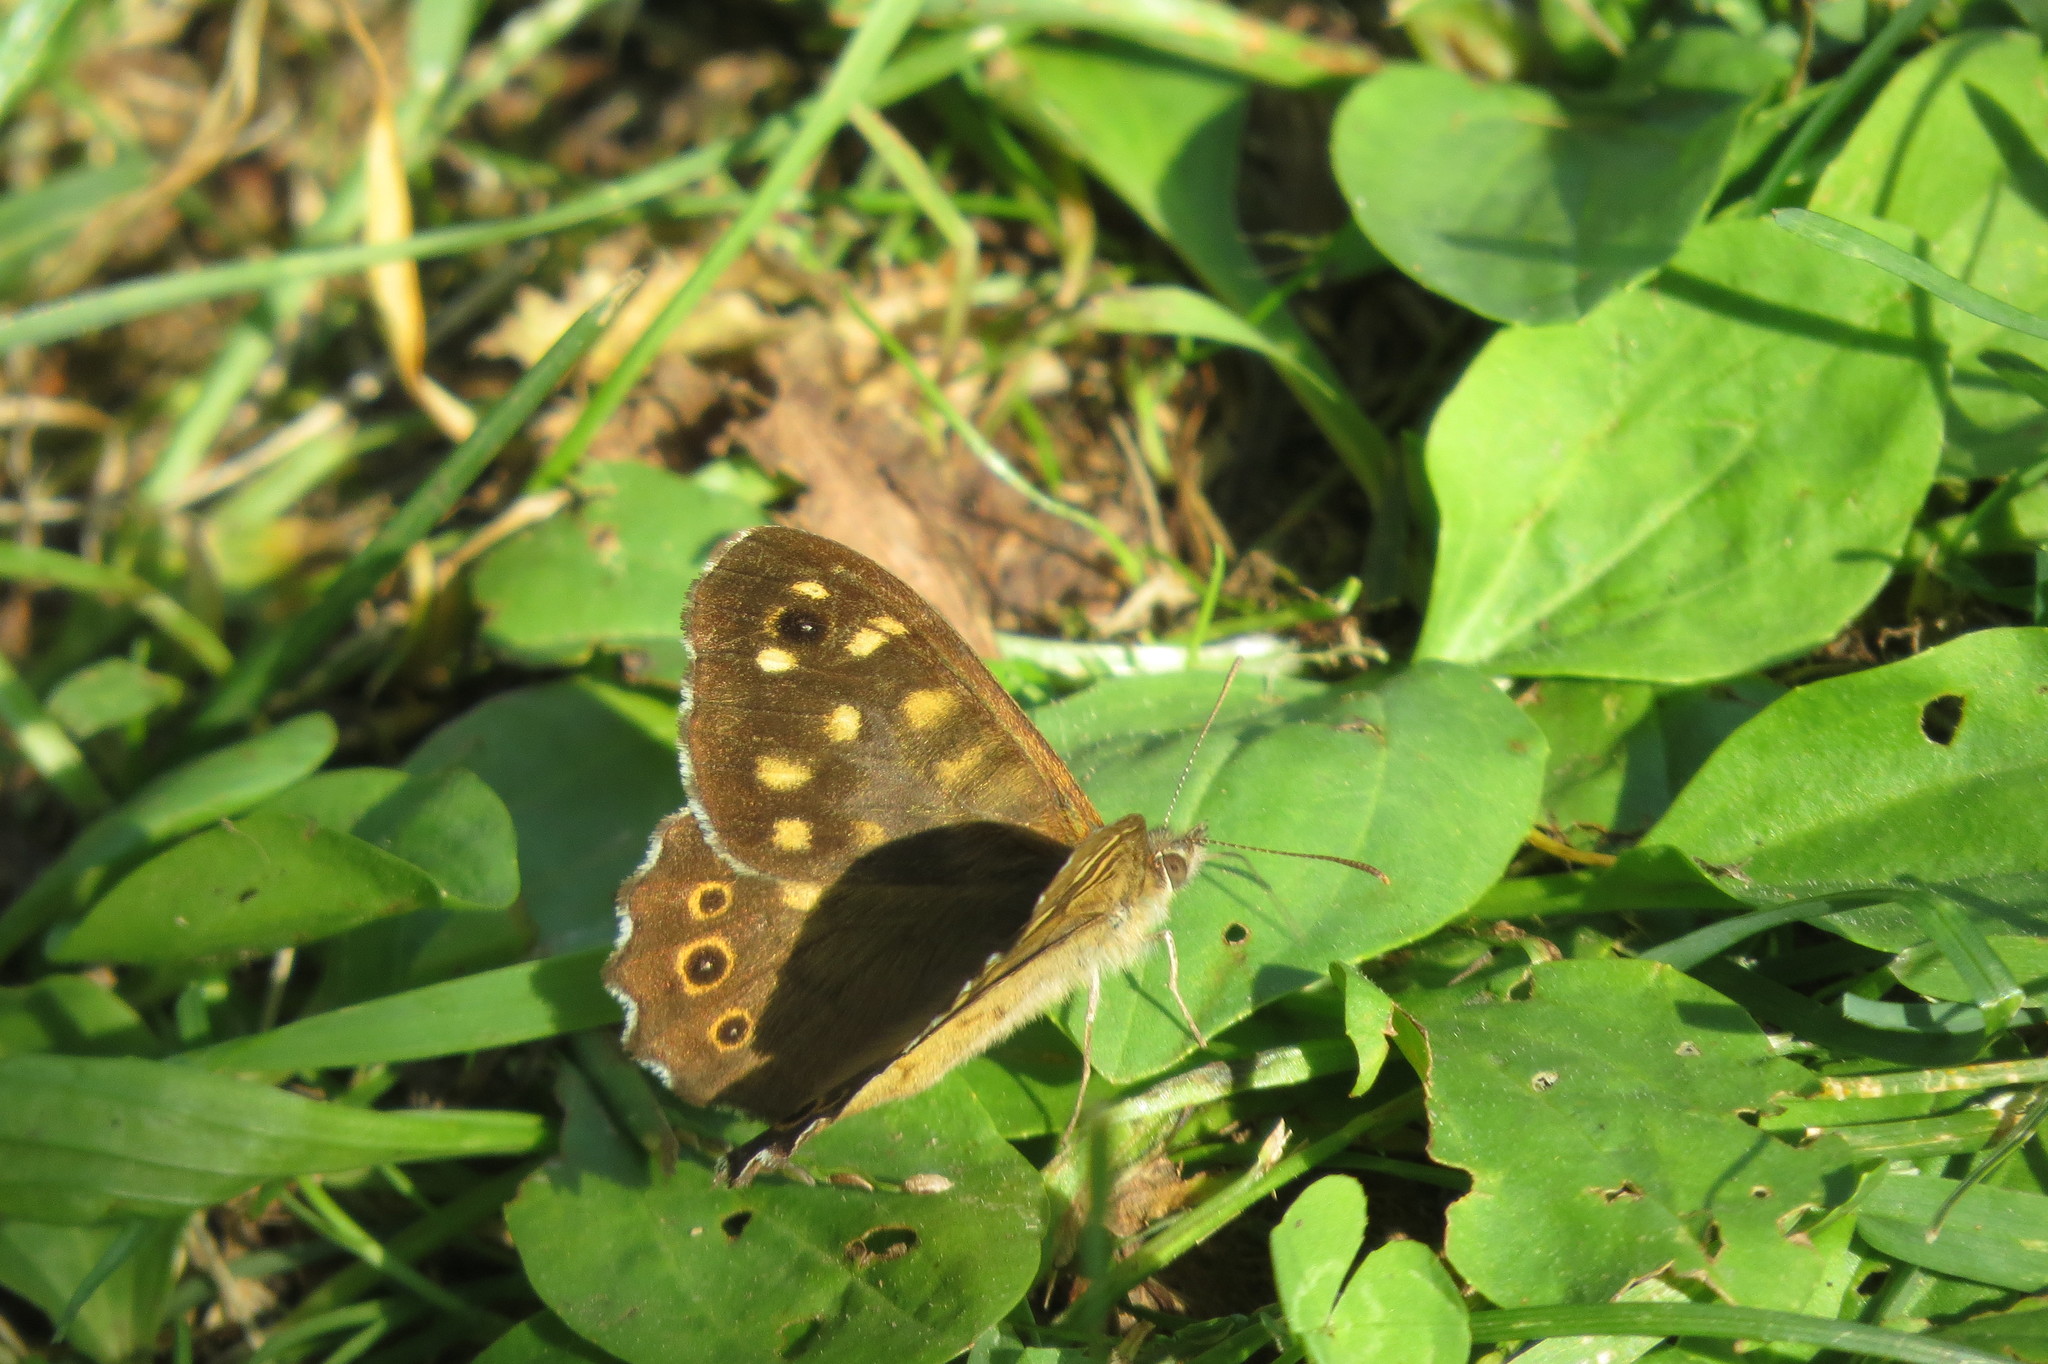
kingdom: Animalia
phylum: Arthropoda
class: Insecta
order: Lepidoptera
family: Nymphalidae
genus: Pararge
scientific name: Pararge aegeria
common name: Speckled wood
